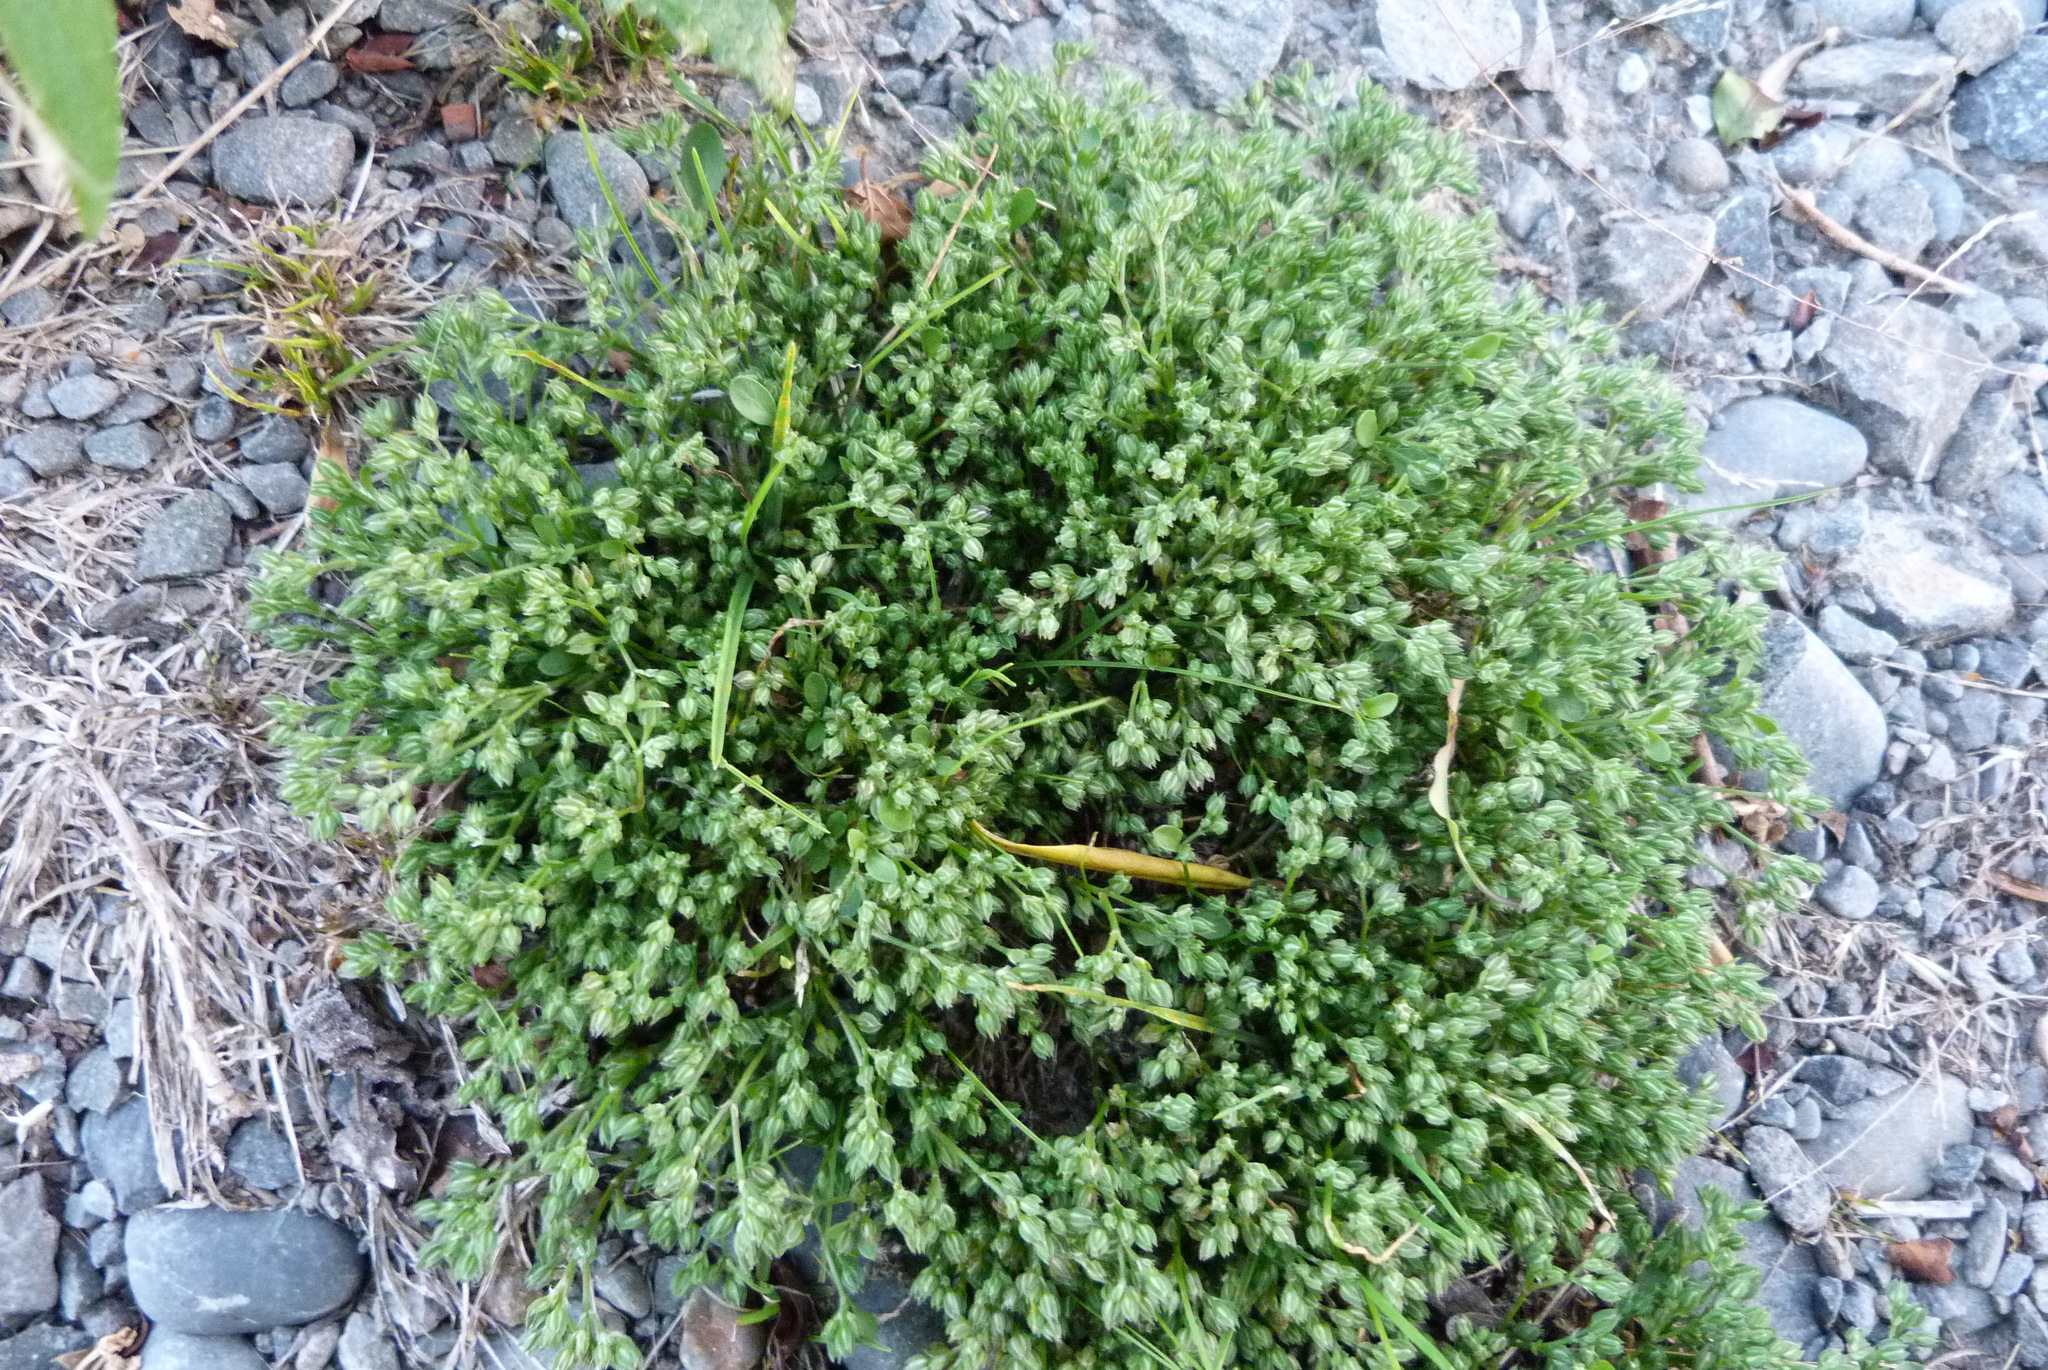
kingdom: Plantae
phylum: Tracheophyta
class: Magnoliopsida
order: Caryophyllales
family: Caryophyllaceae
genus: Polycarpon
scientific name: Polycarpon tetraphyllum
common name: Four-leaved all-seed
